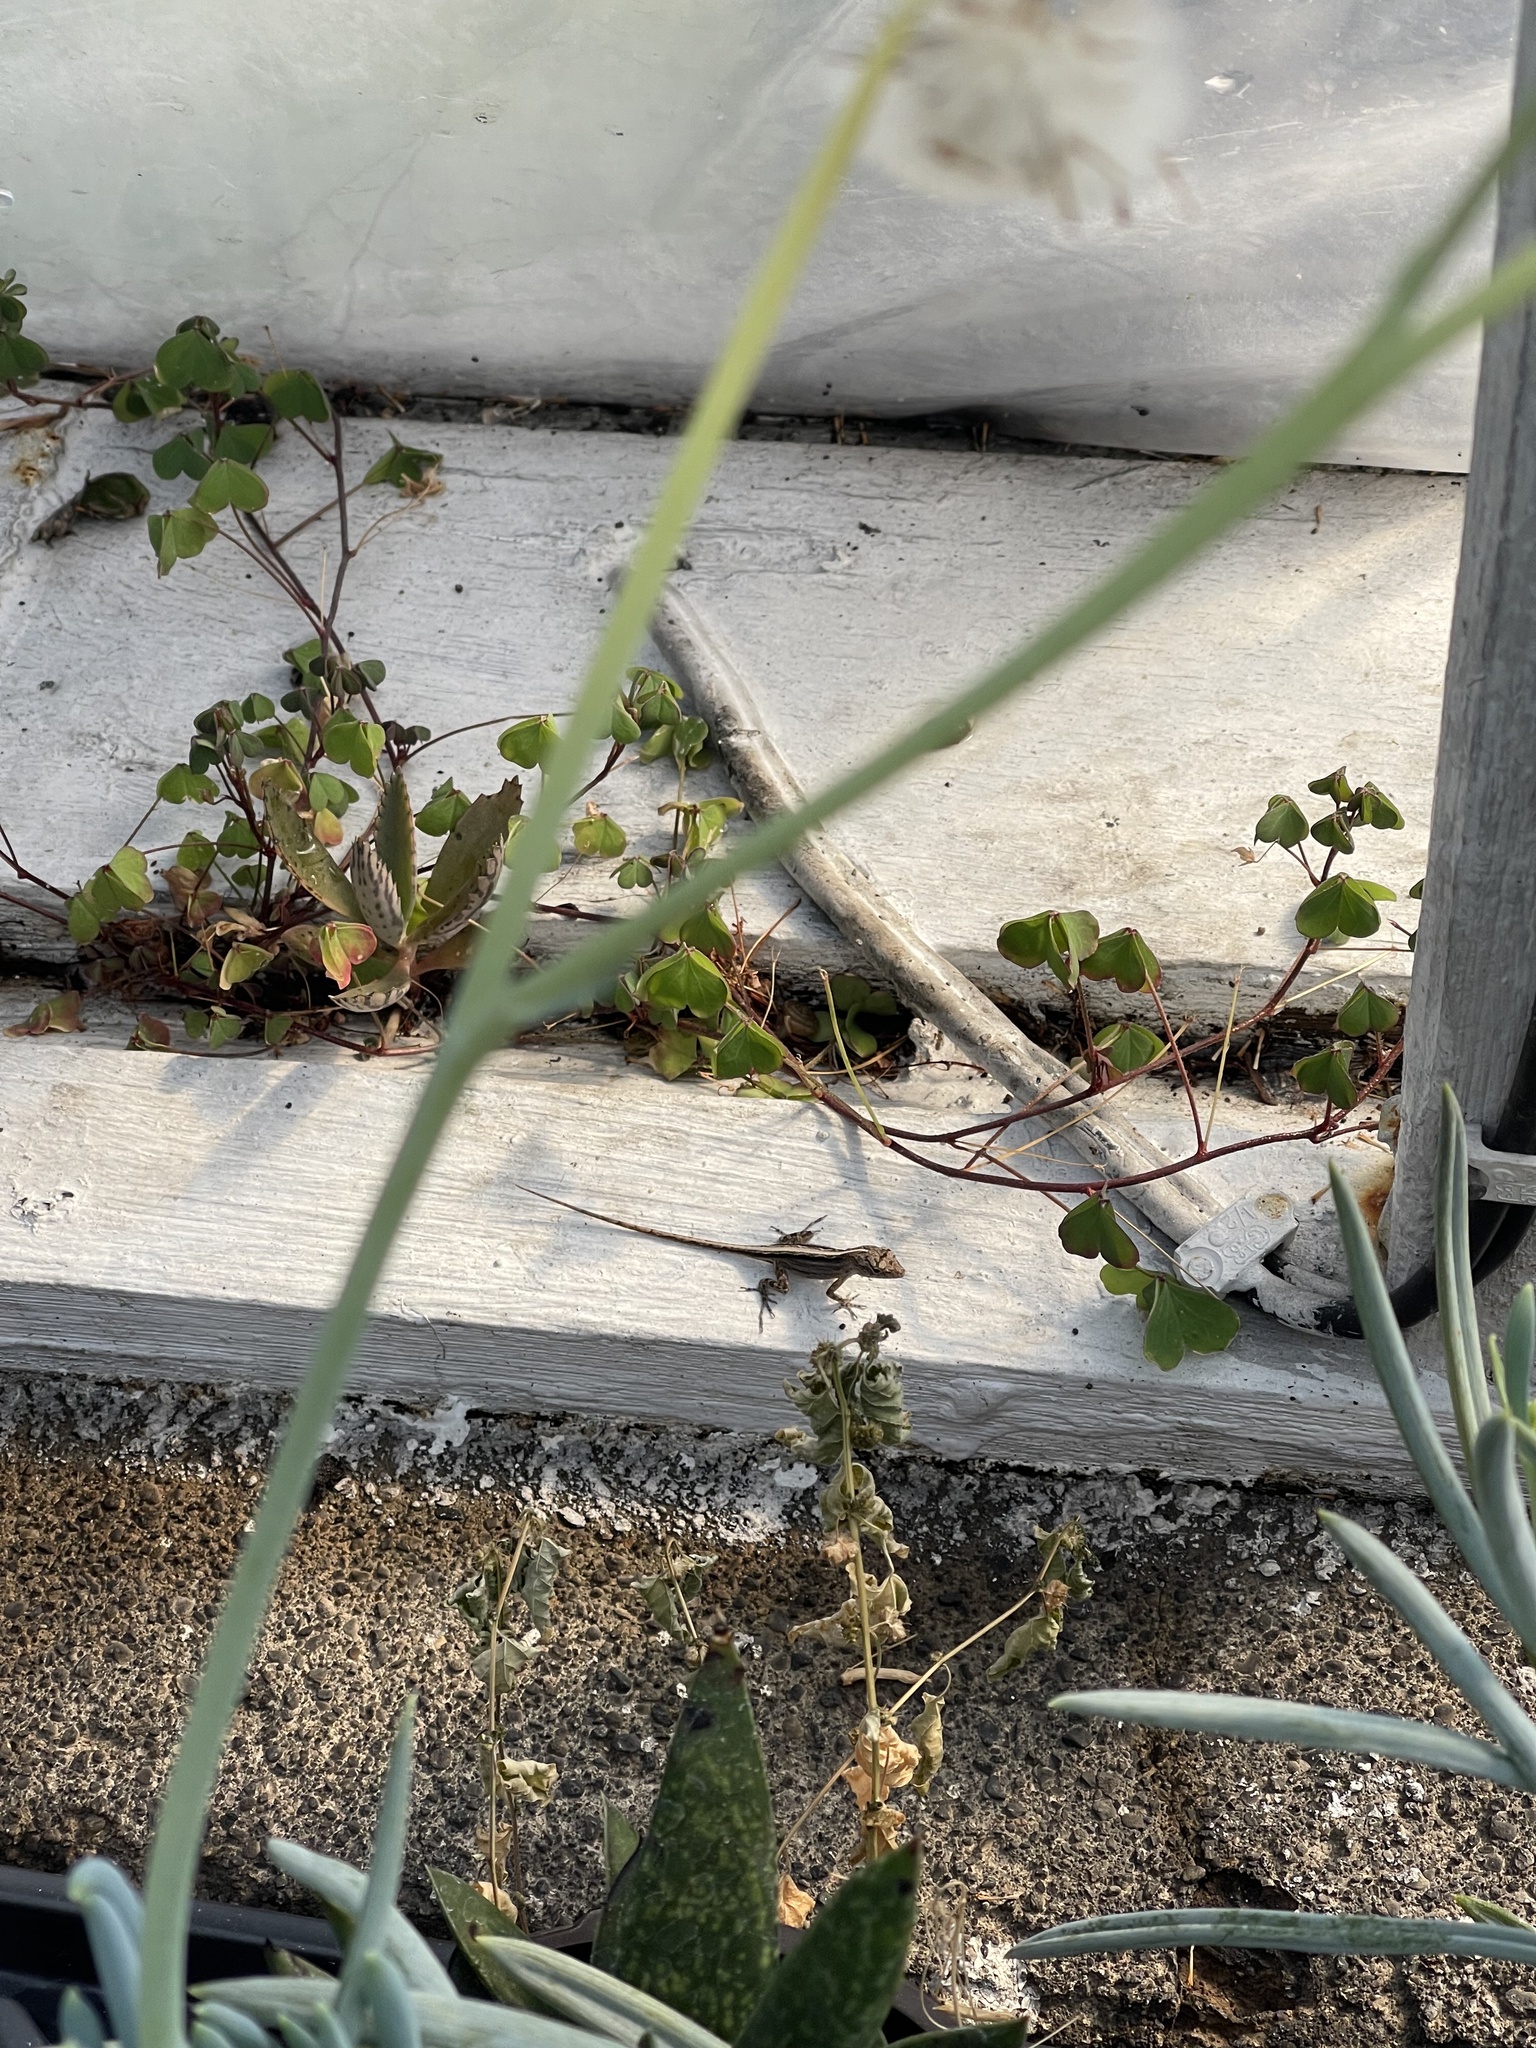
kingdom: Animalia
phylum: Chordata
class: Squamata
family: Dactyloidae
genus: Anolis
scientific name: Anolis sagrei
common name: Brown anole
